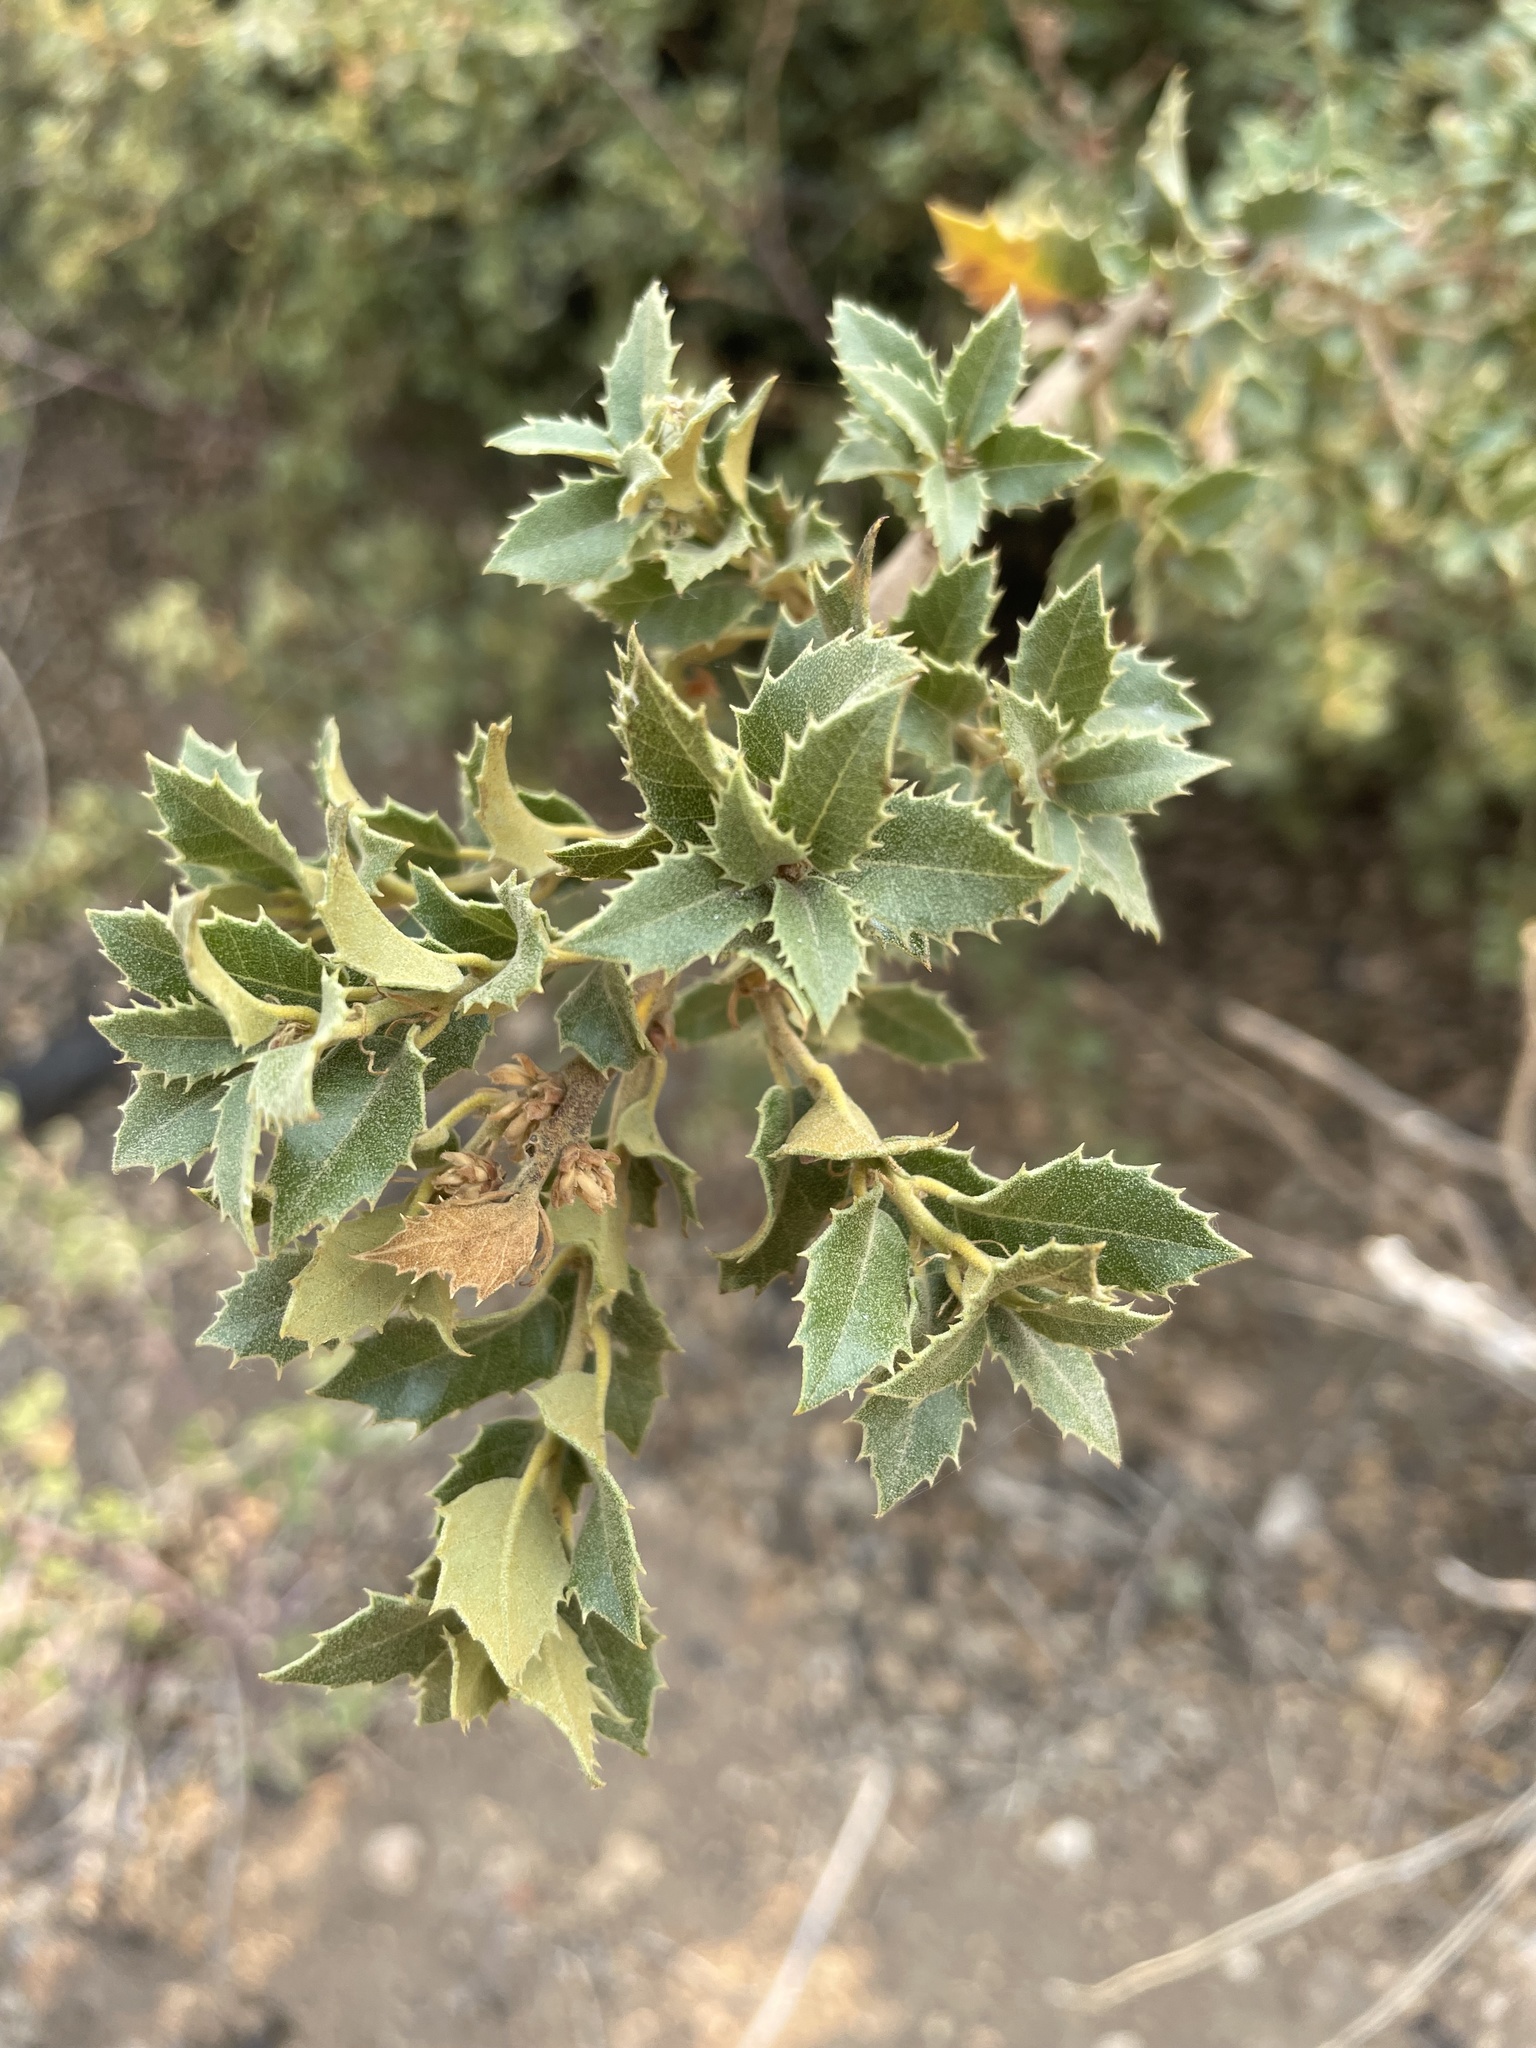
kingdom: Plantae
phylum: Tracheophyta
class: Magnoliopsida
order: Fagales
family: Fagaceae
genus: Quercus
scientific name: Quercus chrysolepis
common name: Canyon live oak
